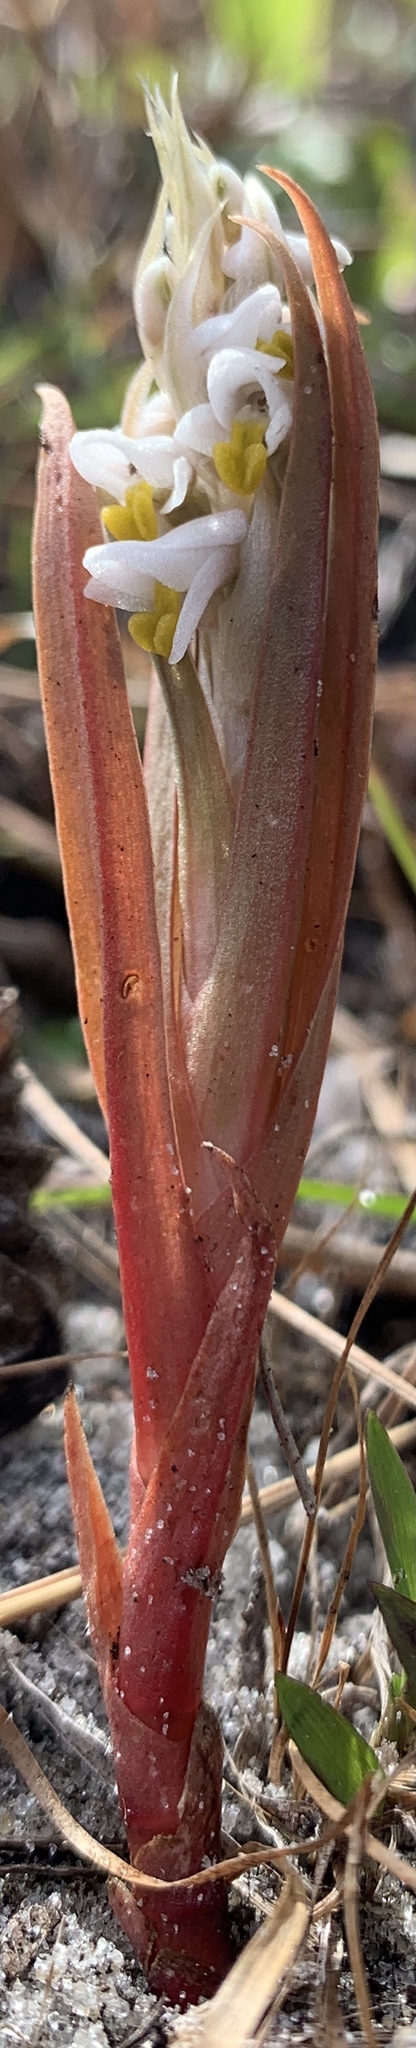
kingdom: Plantae
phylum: Tracheophyta
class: Liliopsida
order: Asparagales
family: Orchidaceae
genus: Zeuxine
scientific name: Zeuxine strateumatica
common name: Soldier's orchid
